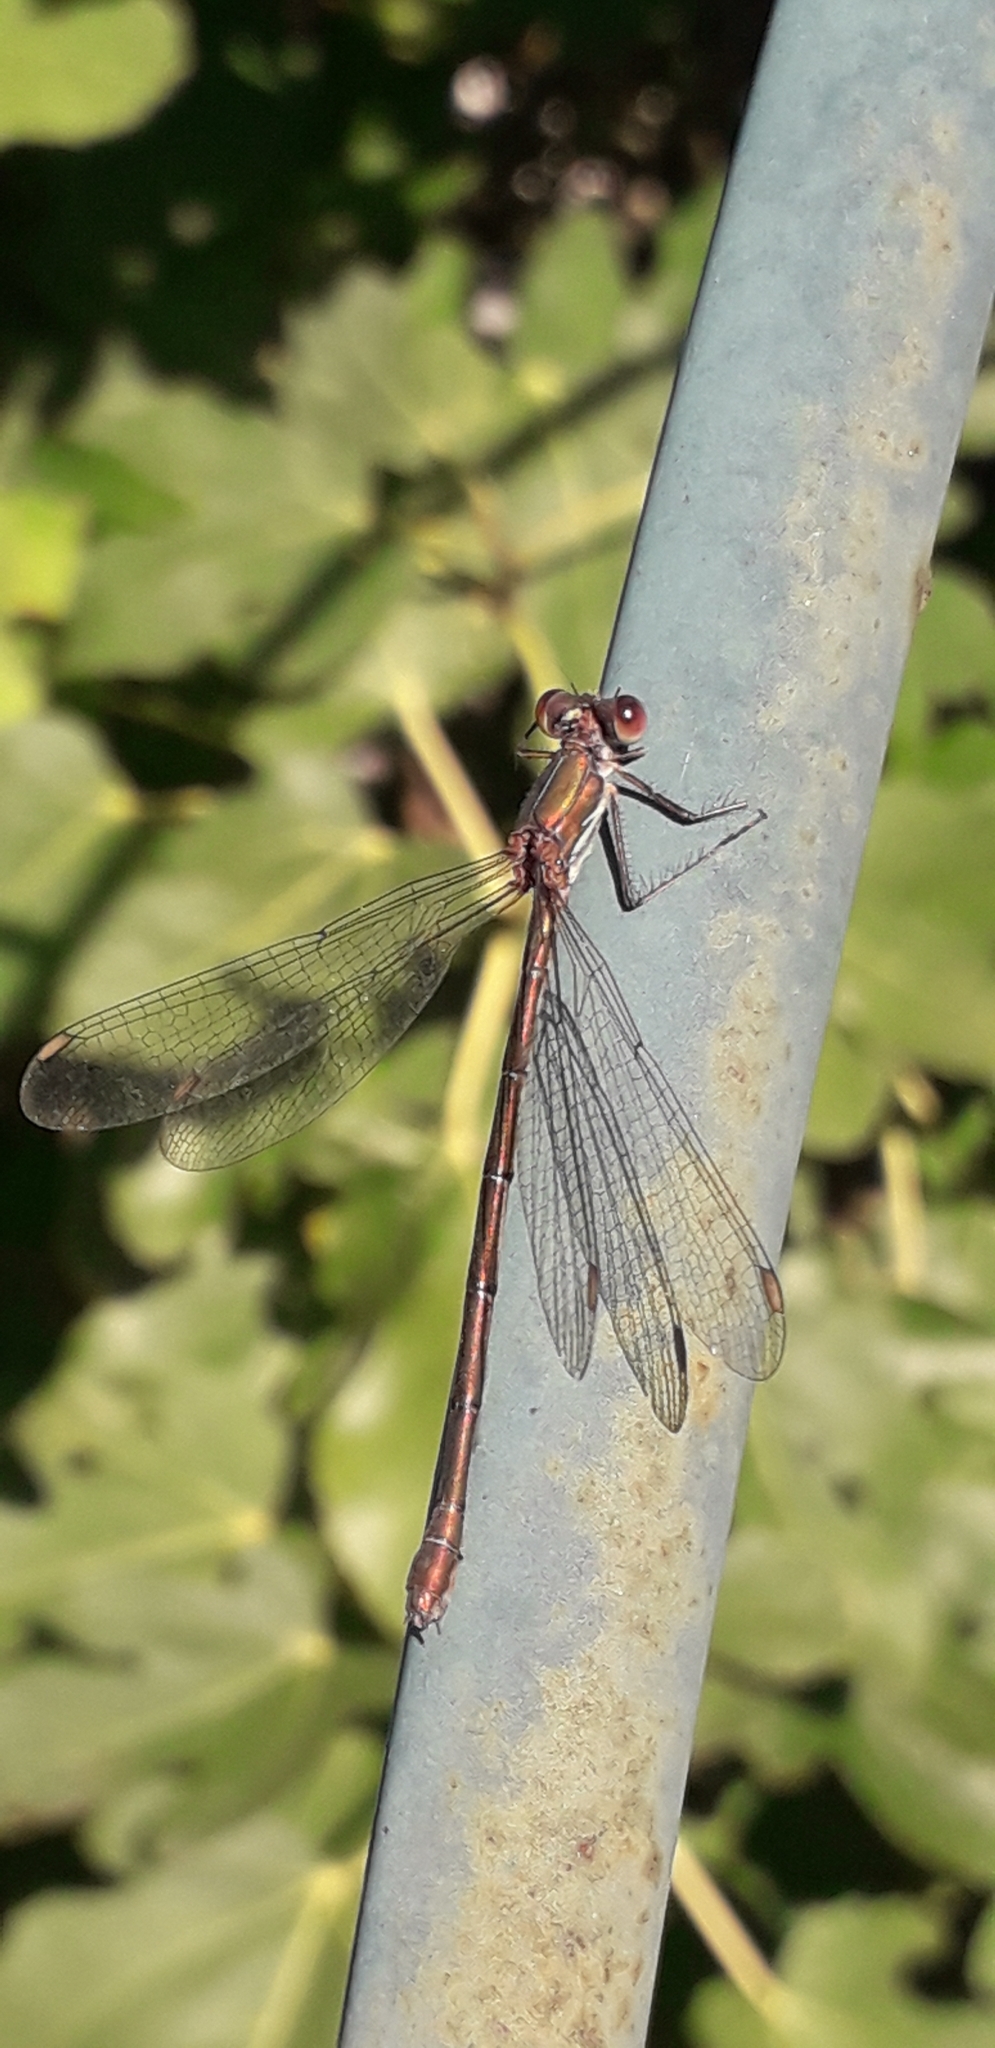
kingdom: Animalia
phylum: Arthropoda
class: Insecta
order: Odonata
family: Lestidae
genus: Chalcolestes
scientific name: Chalcolestes viridis
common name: Green emerald damselfly
